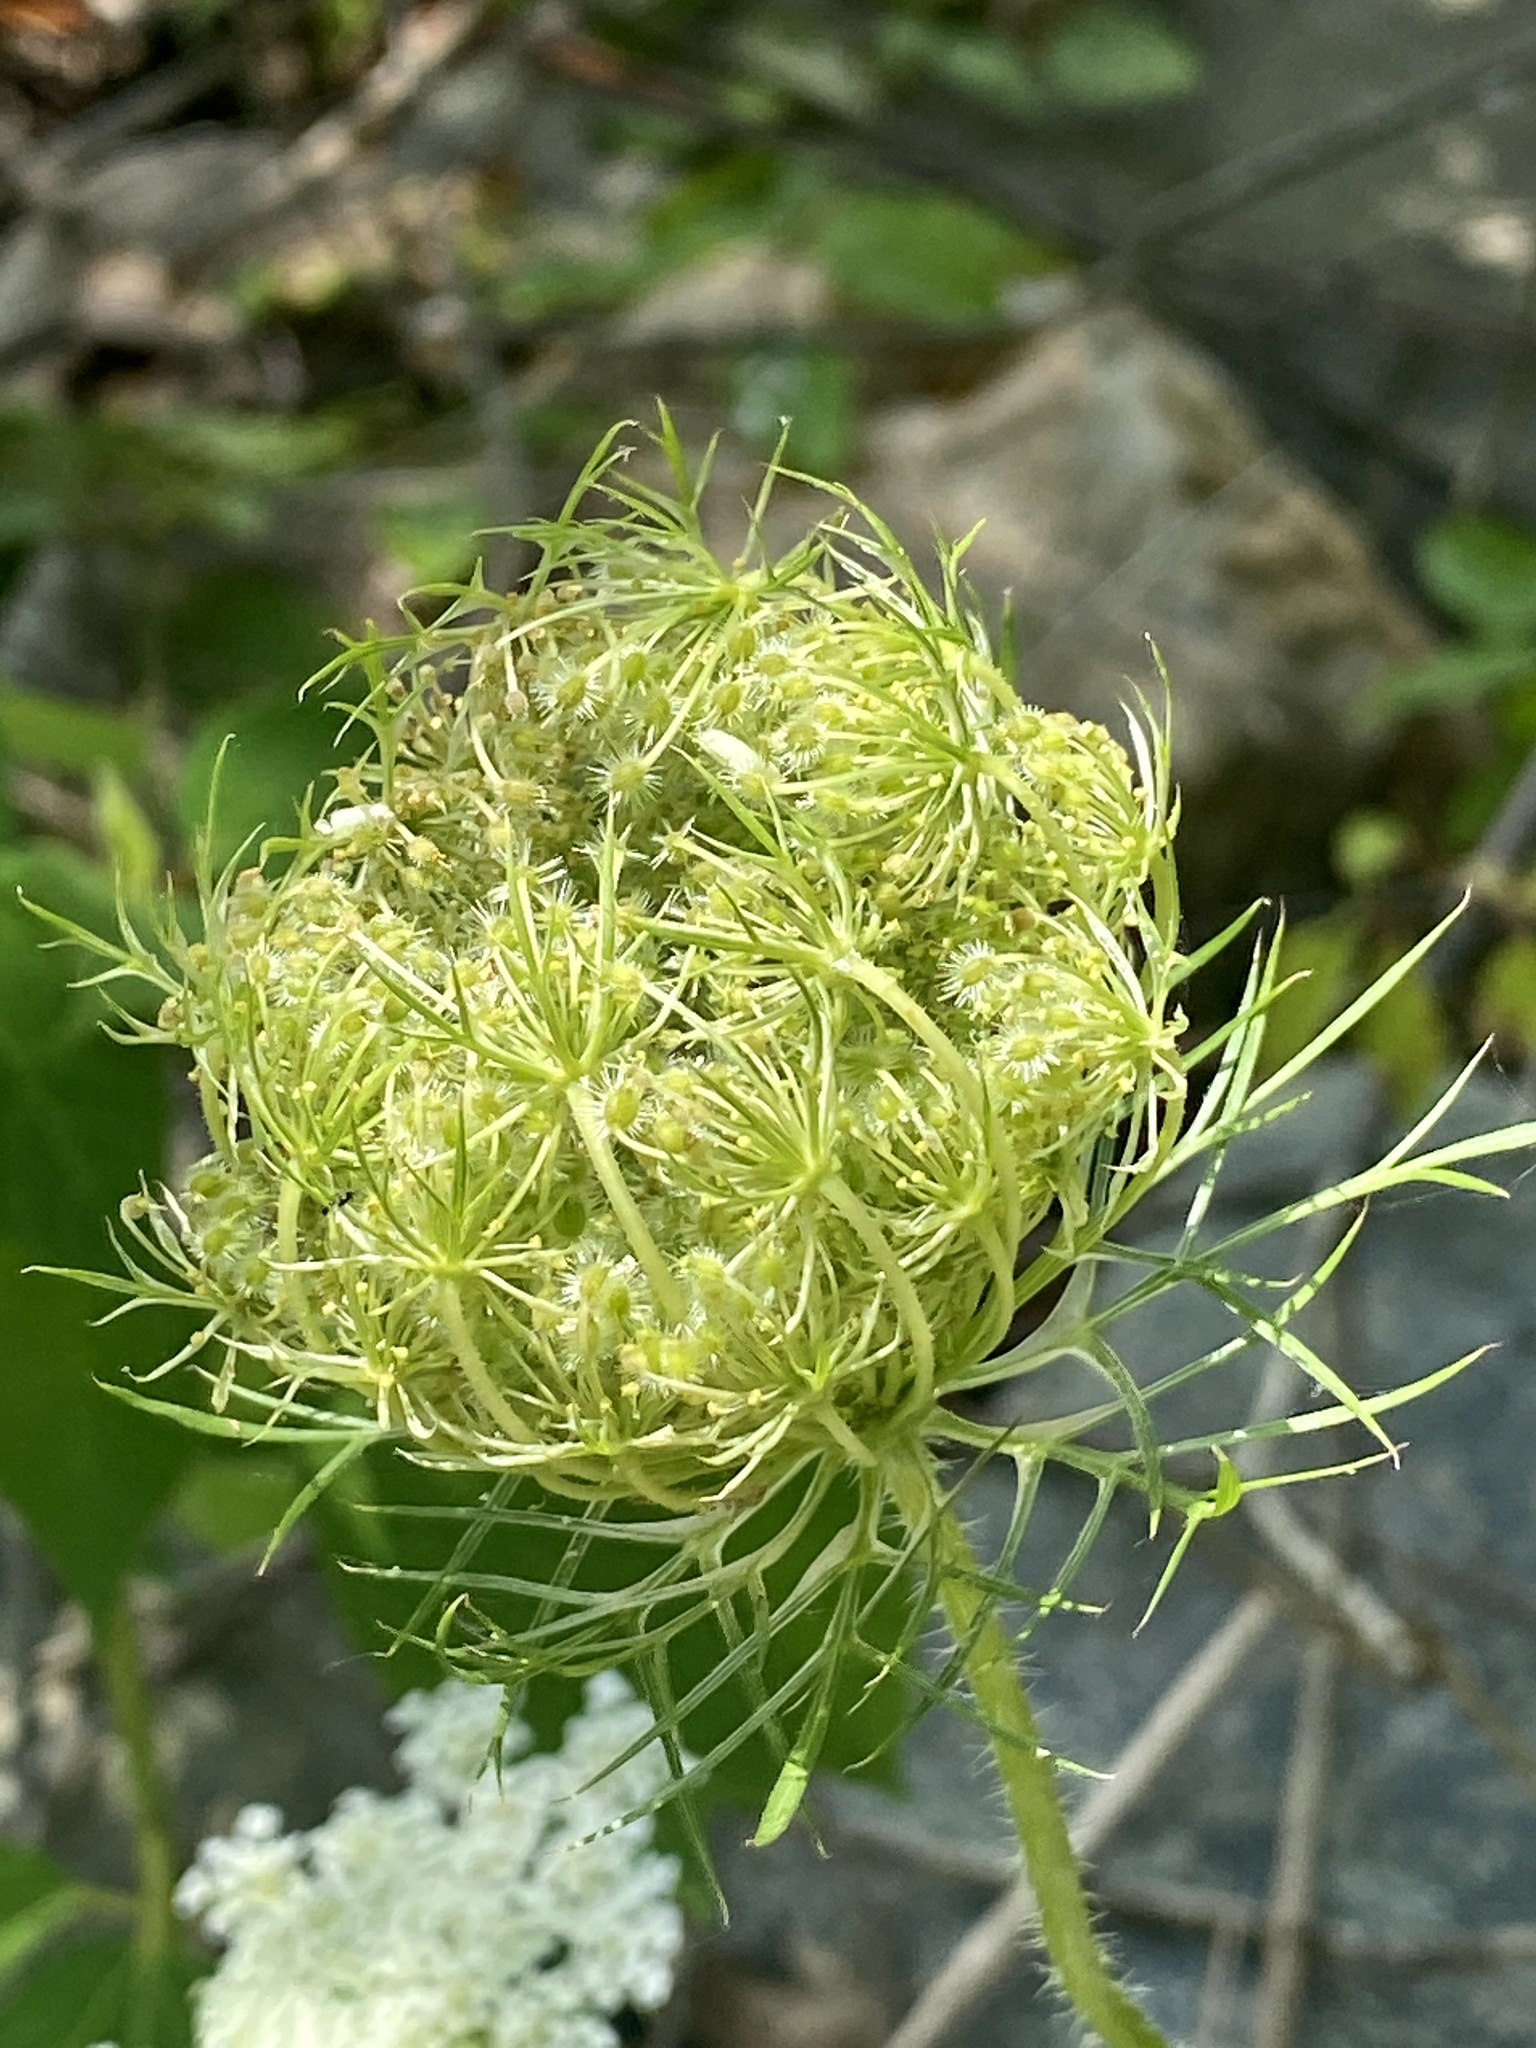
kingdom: Plantae
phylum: Tracheophyta
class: Magnoliopsida
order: Apiales
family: Apiaceae
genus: Daucus
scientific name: Daucus carota
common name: Wild carrot
